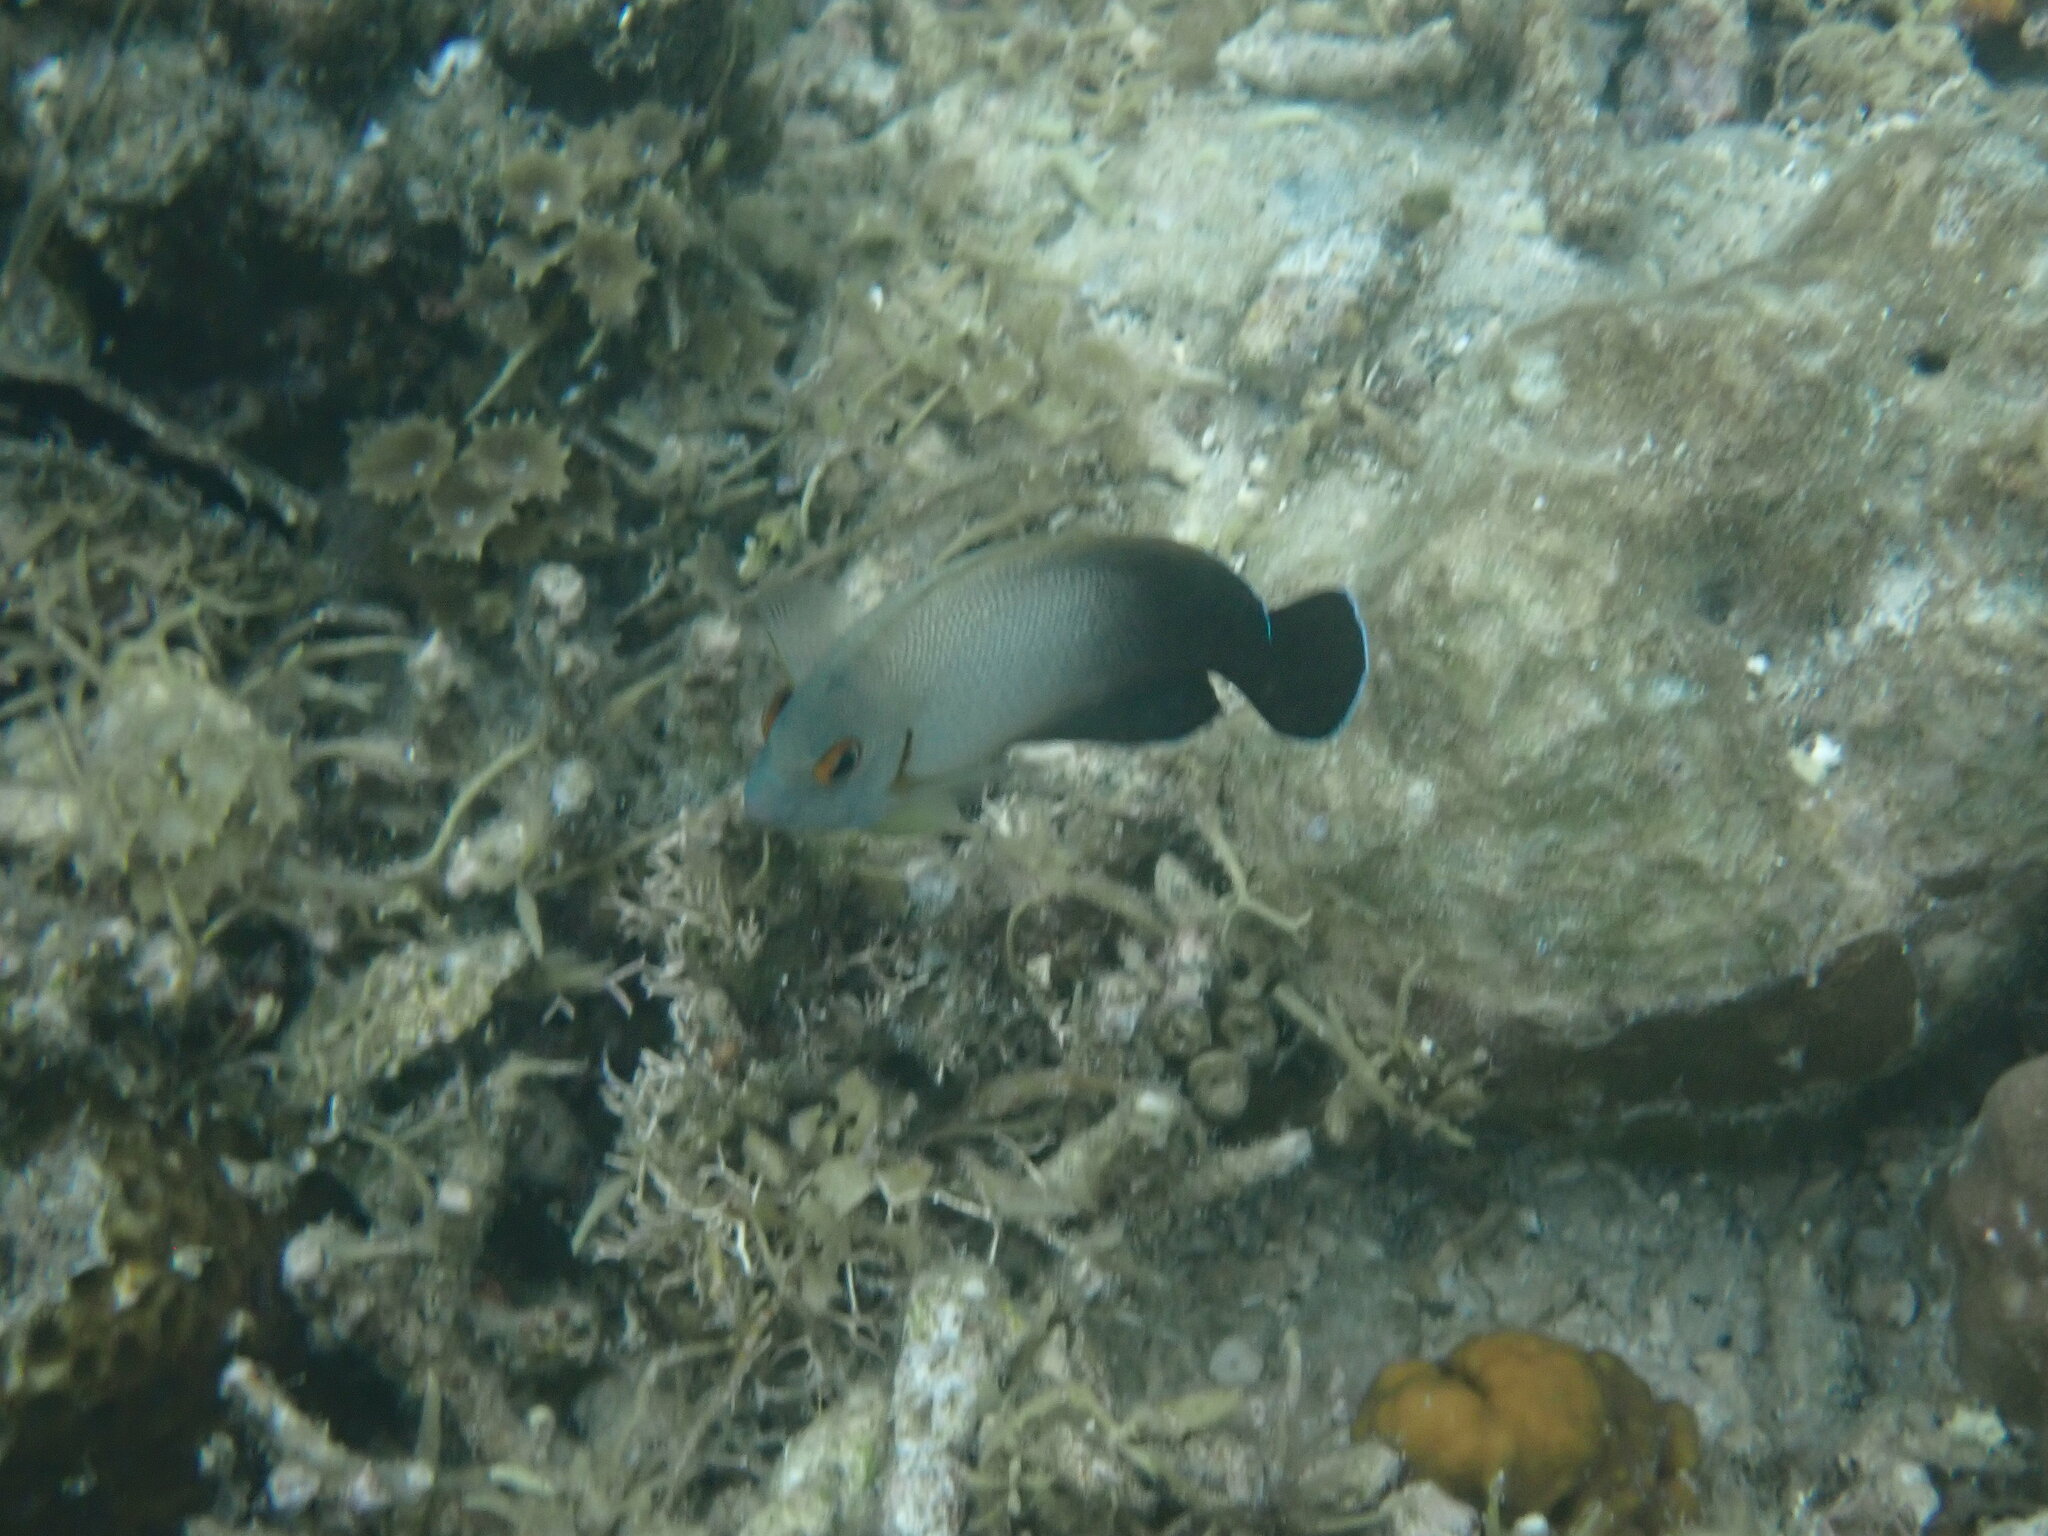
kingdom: Animalia
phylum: Chordata
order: Perciformes
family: Pomacanthidae
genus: Centropyge
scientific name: Centropyge vrolikii
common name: Pearlscale angelfish
